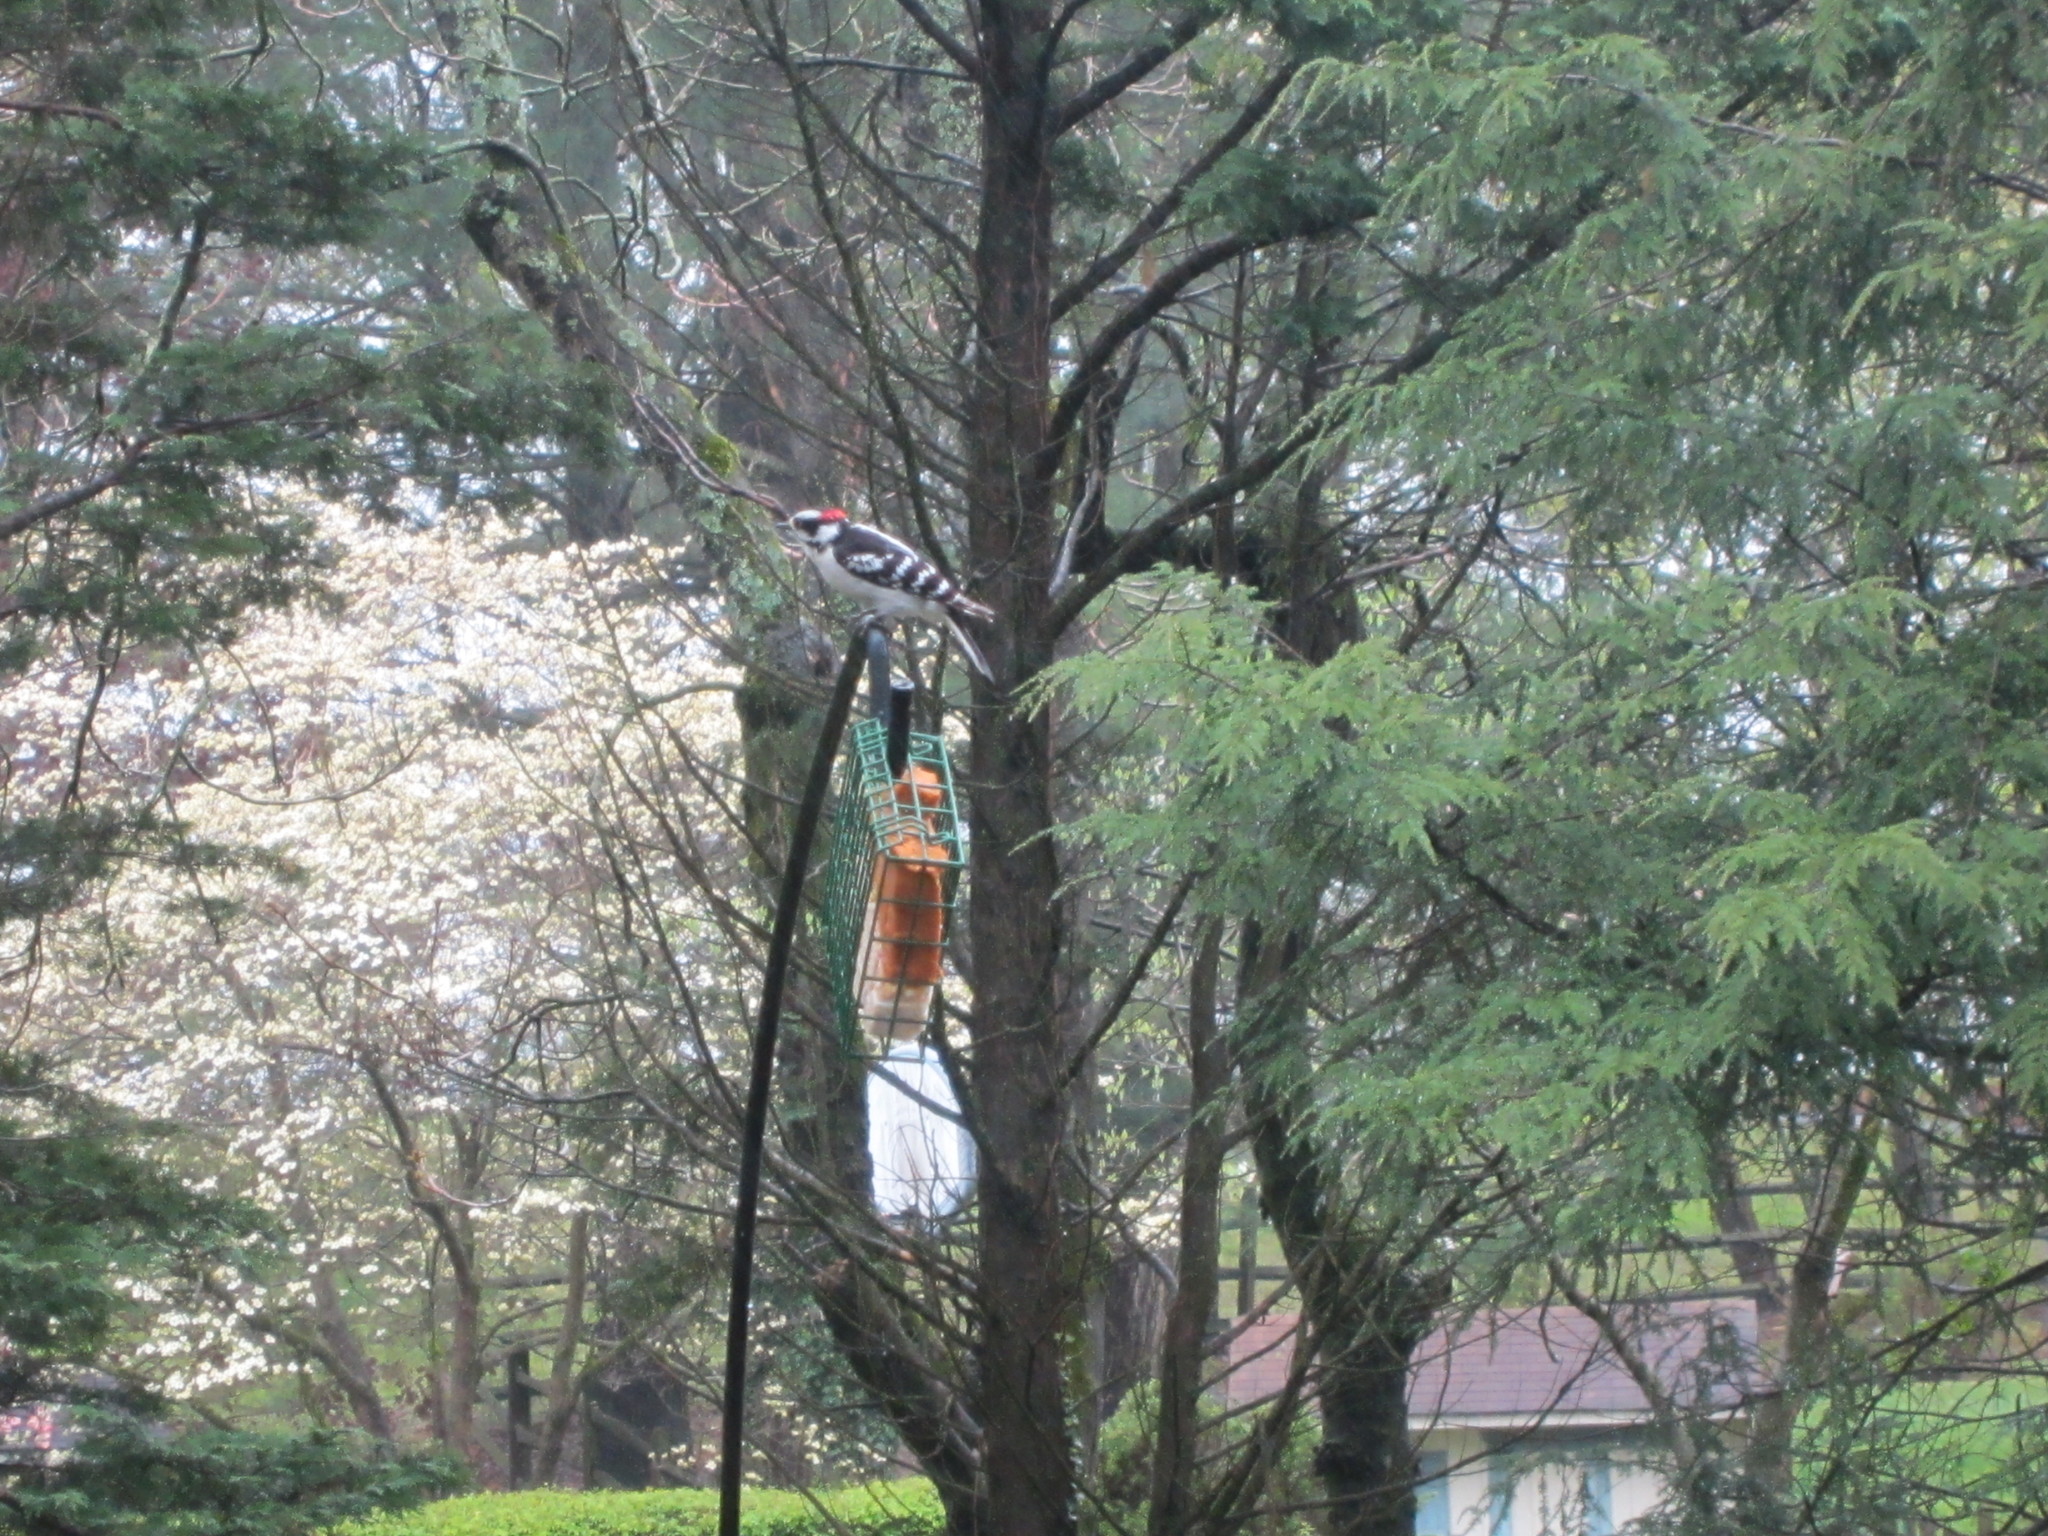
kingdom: Animalia
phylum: Chordata
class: Aves
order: Piciformes
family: Picidae
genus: Dryobates
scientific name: Dryobates pubescens
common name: Downy woodpecker
